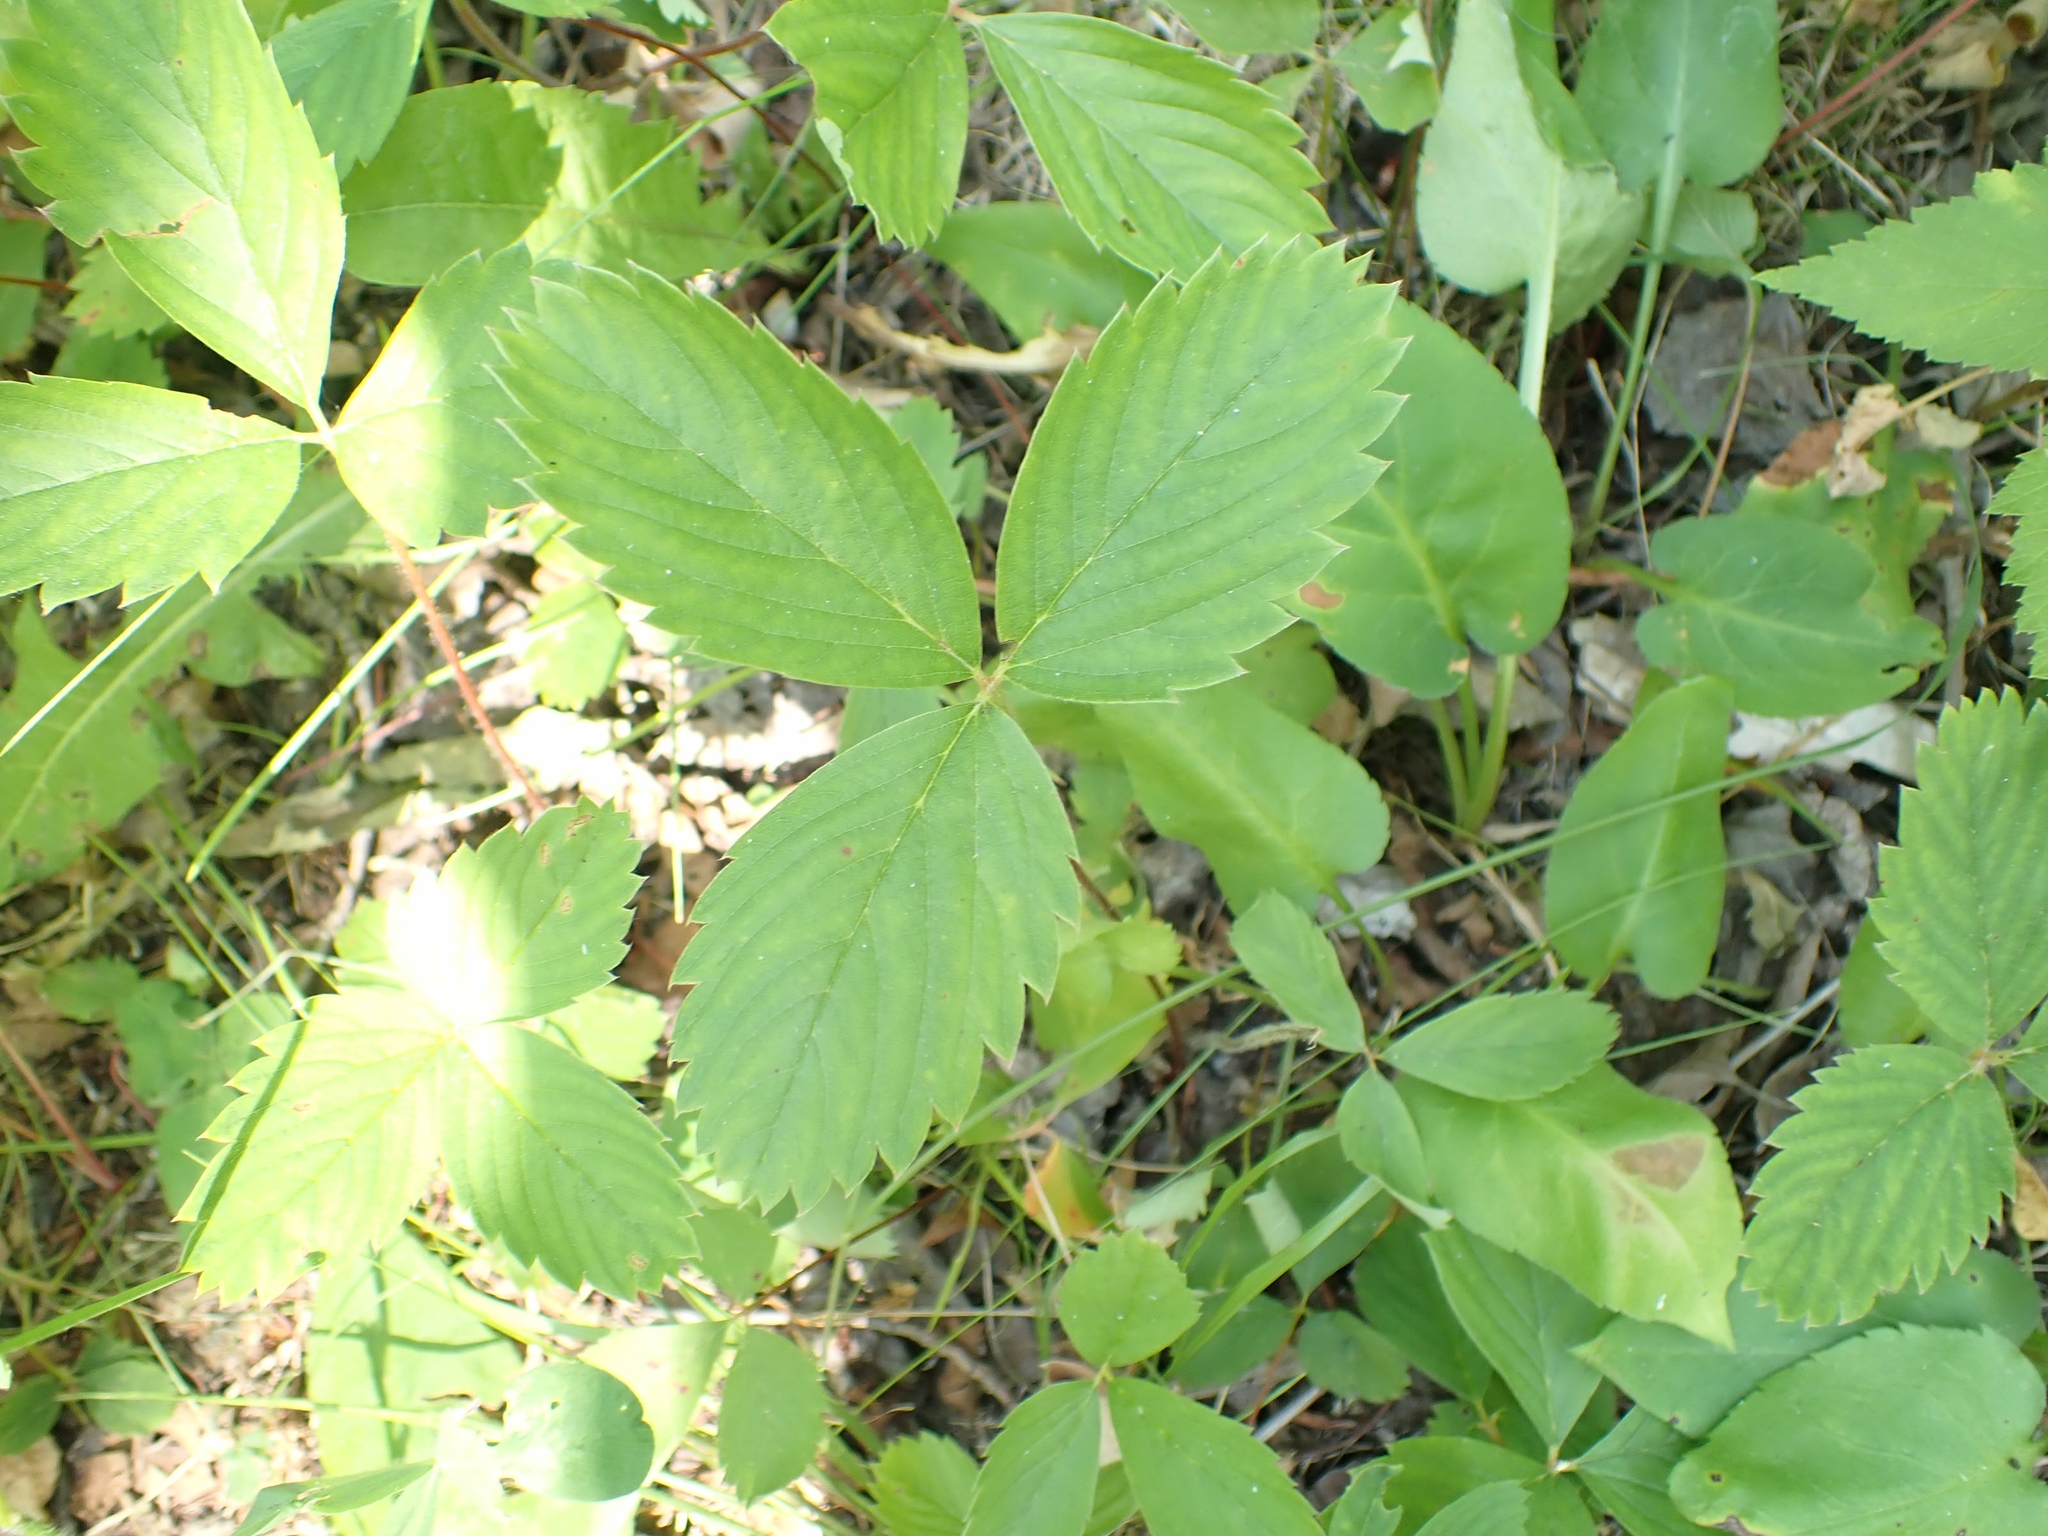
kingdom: Plantae
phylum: Tracheophyta
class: Magnoliopsida
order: Rosales
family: Rosaceae
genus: Fragaria
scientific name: Fragaria virginiana
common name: Thickleaved wild strawberry
